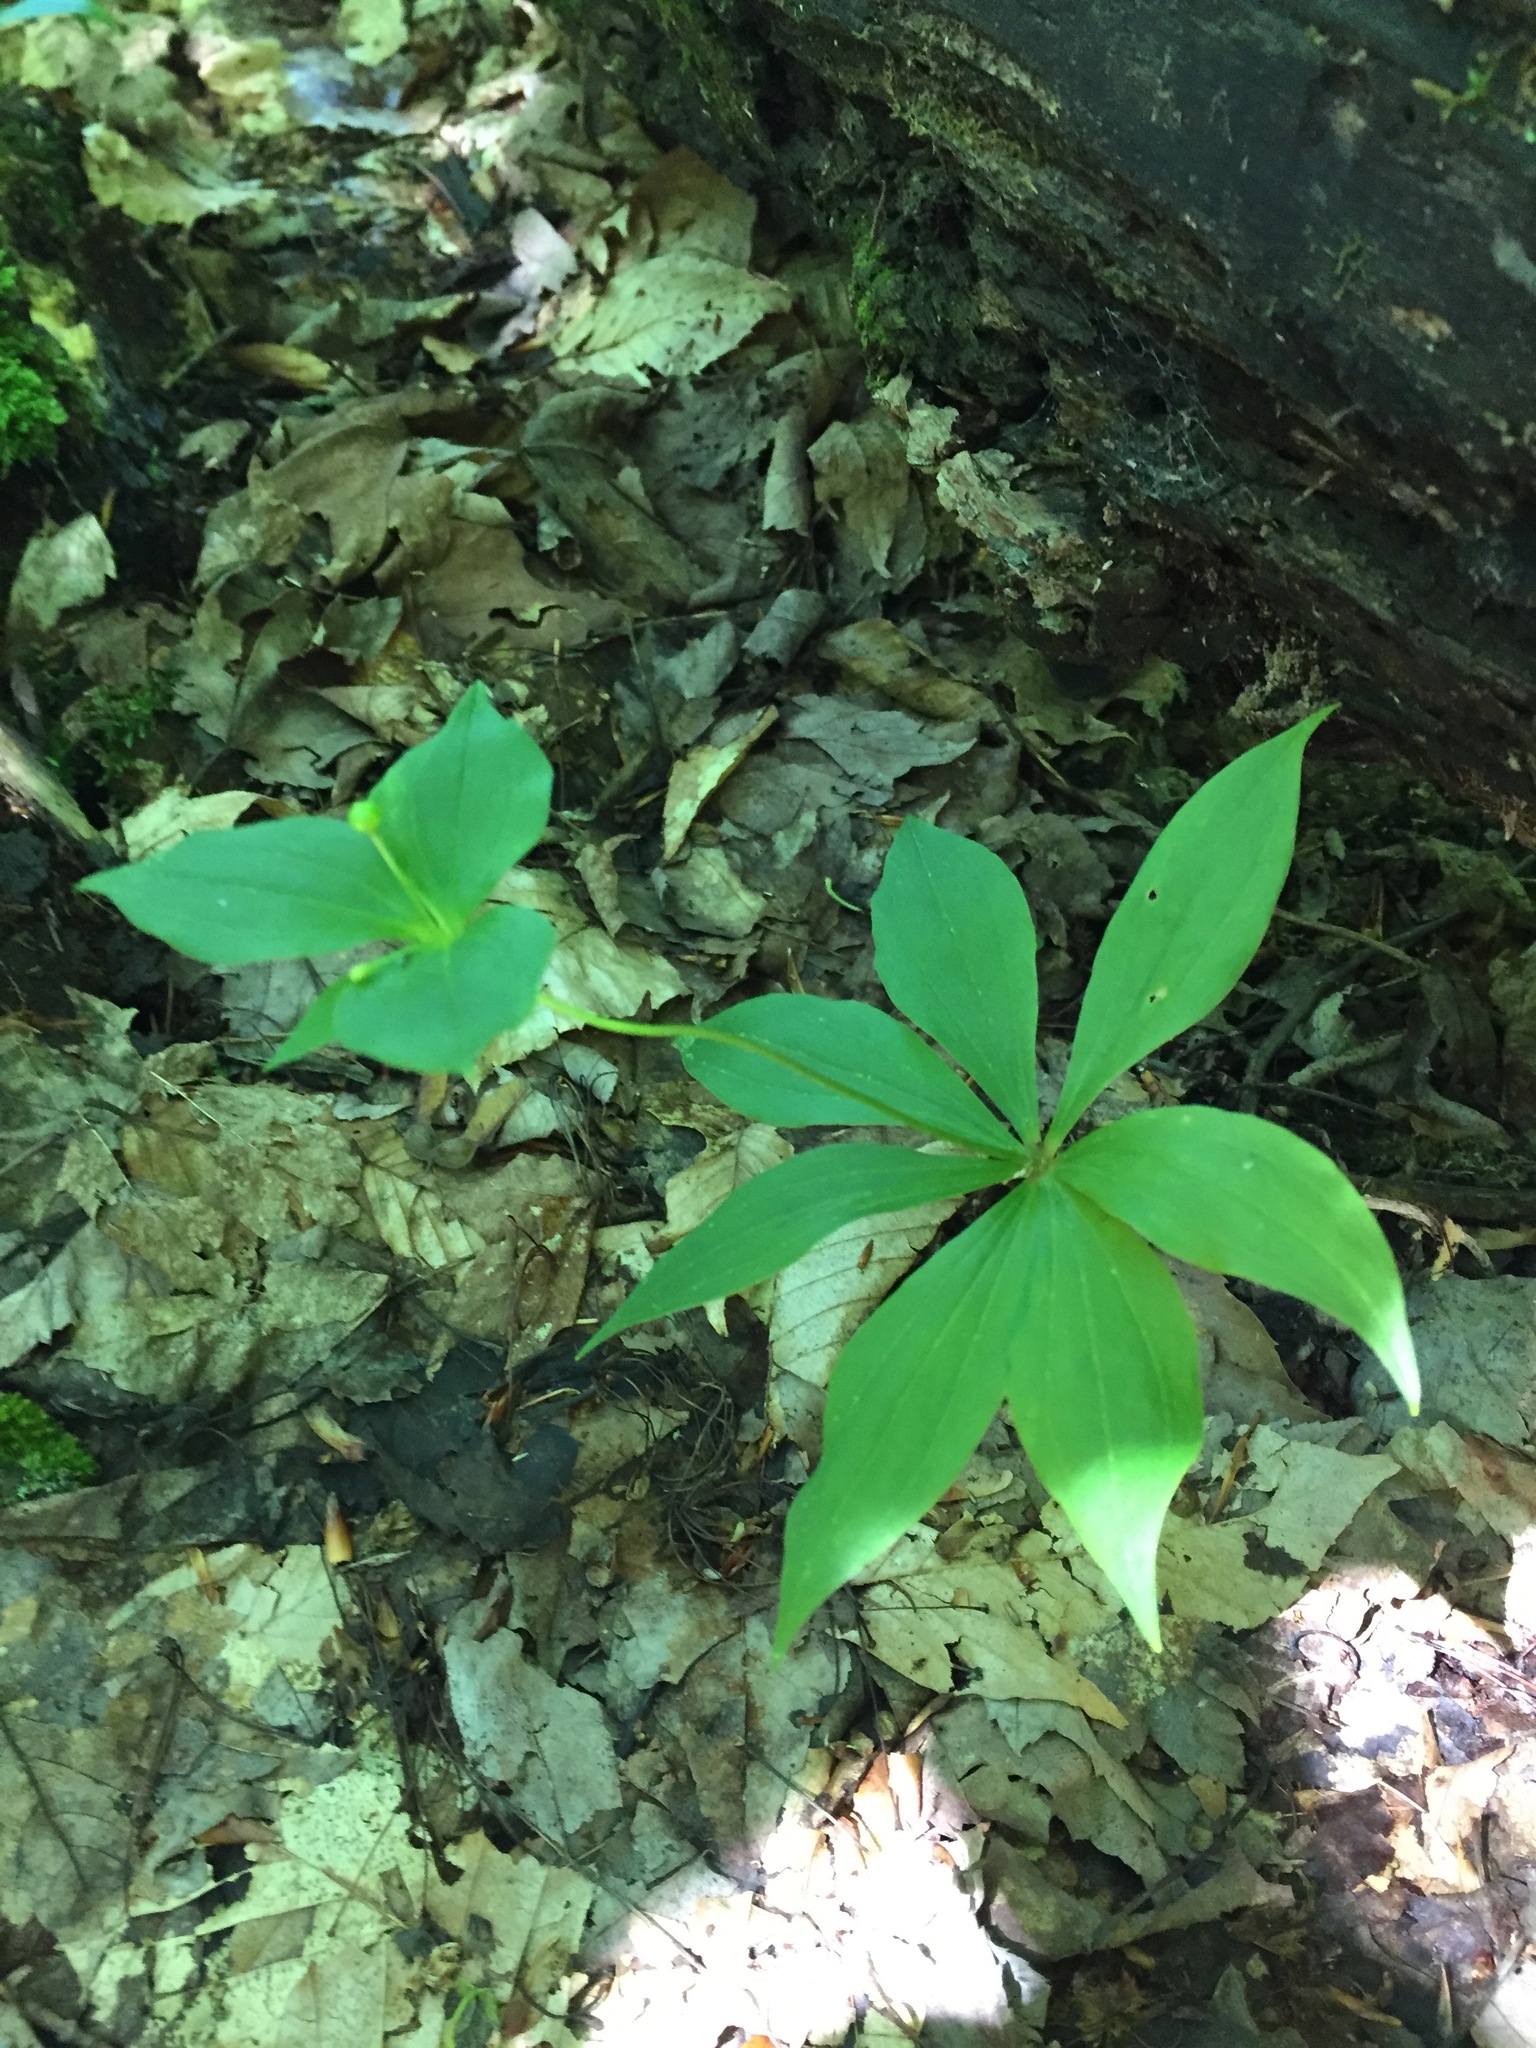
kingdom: Plantae
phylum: Tracheophyta
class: Liliopsida
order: Liliales
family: Liliaceae
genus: Medeola
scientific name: Medeola virginiana
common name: Indian cucumber-root
